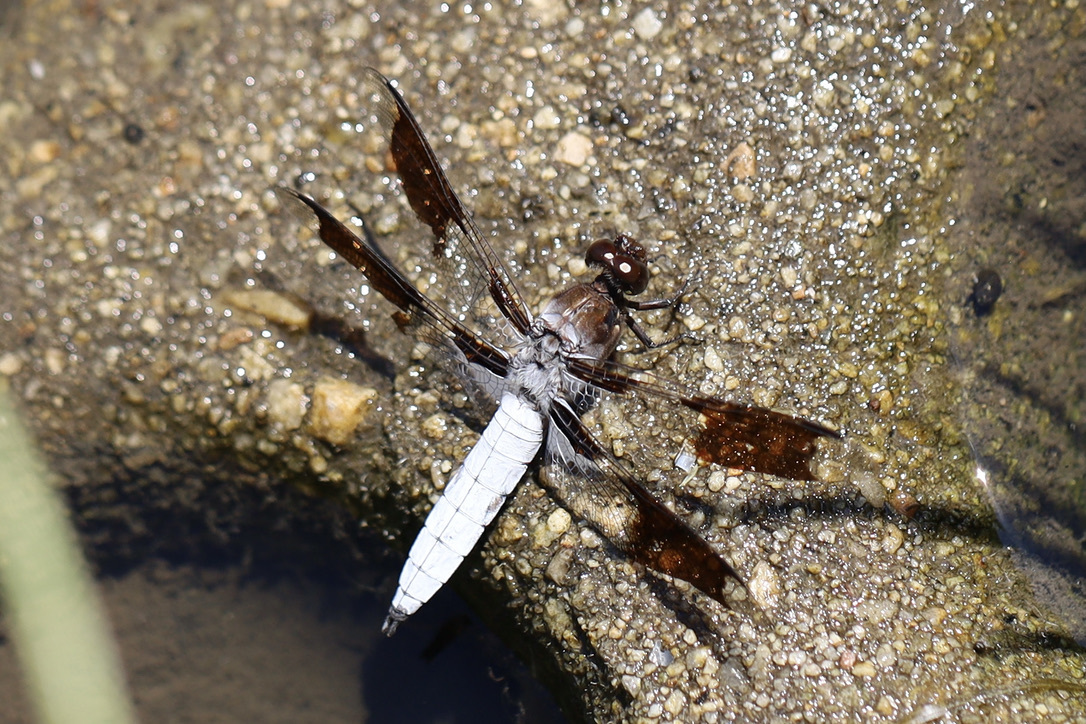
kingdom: Animalia
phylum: Arthropoda
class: Insecta
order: Odonata
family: Libellulidae
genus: Plathemis
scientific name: Plathemis lydia
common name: Common whitetail
